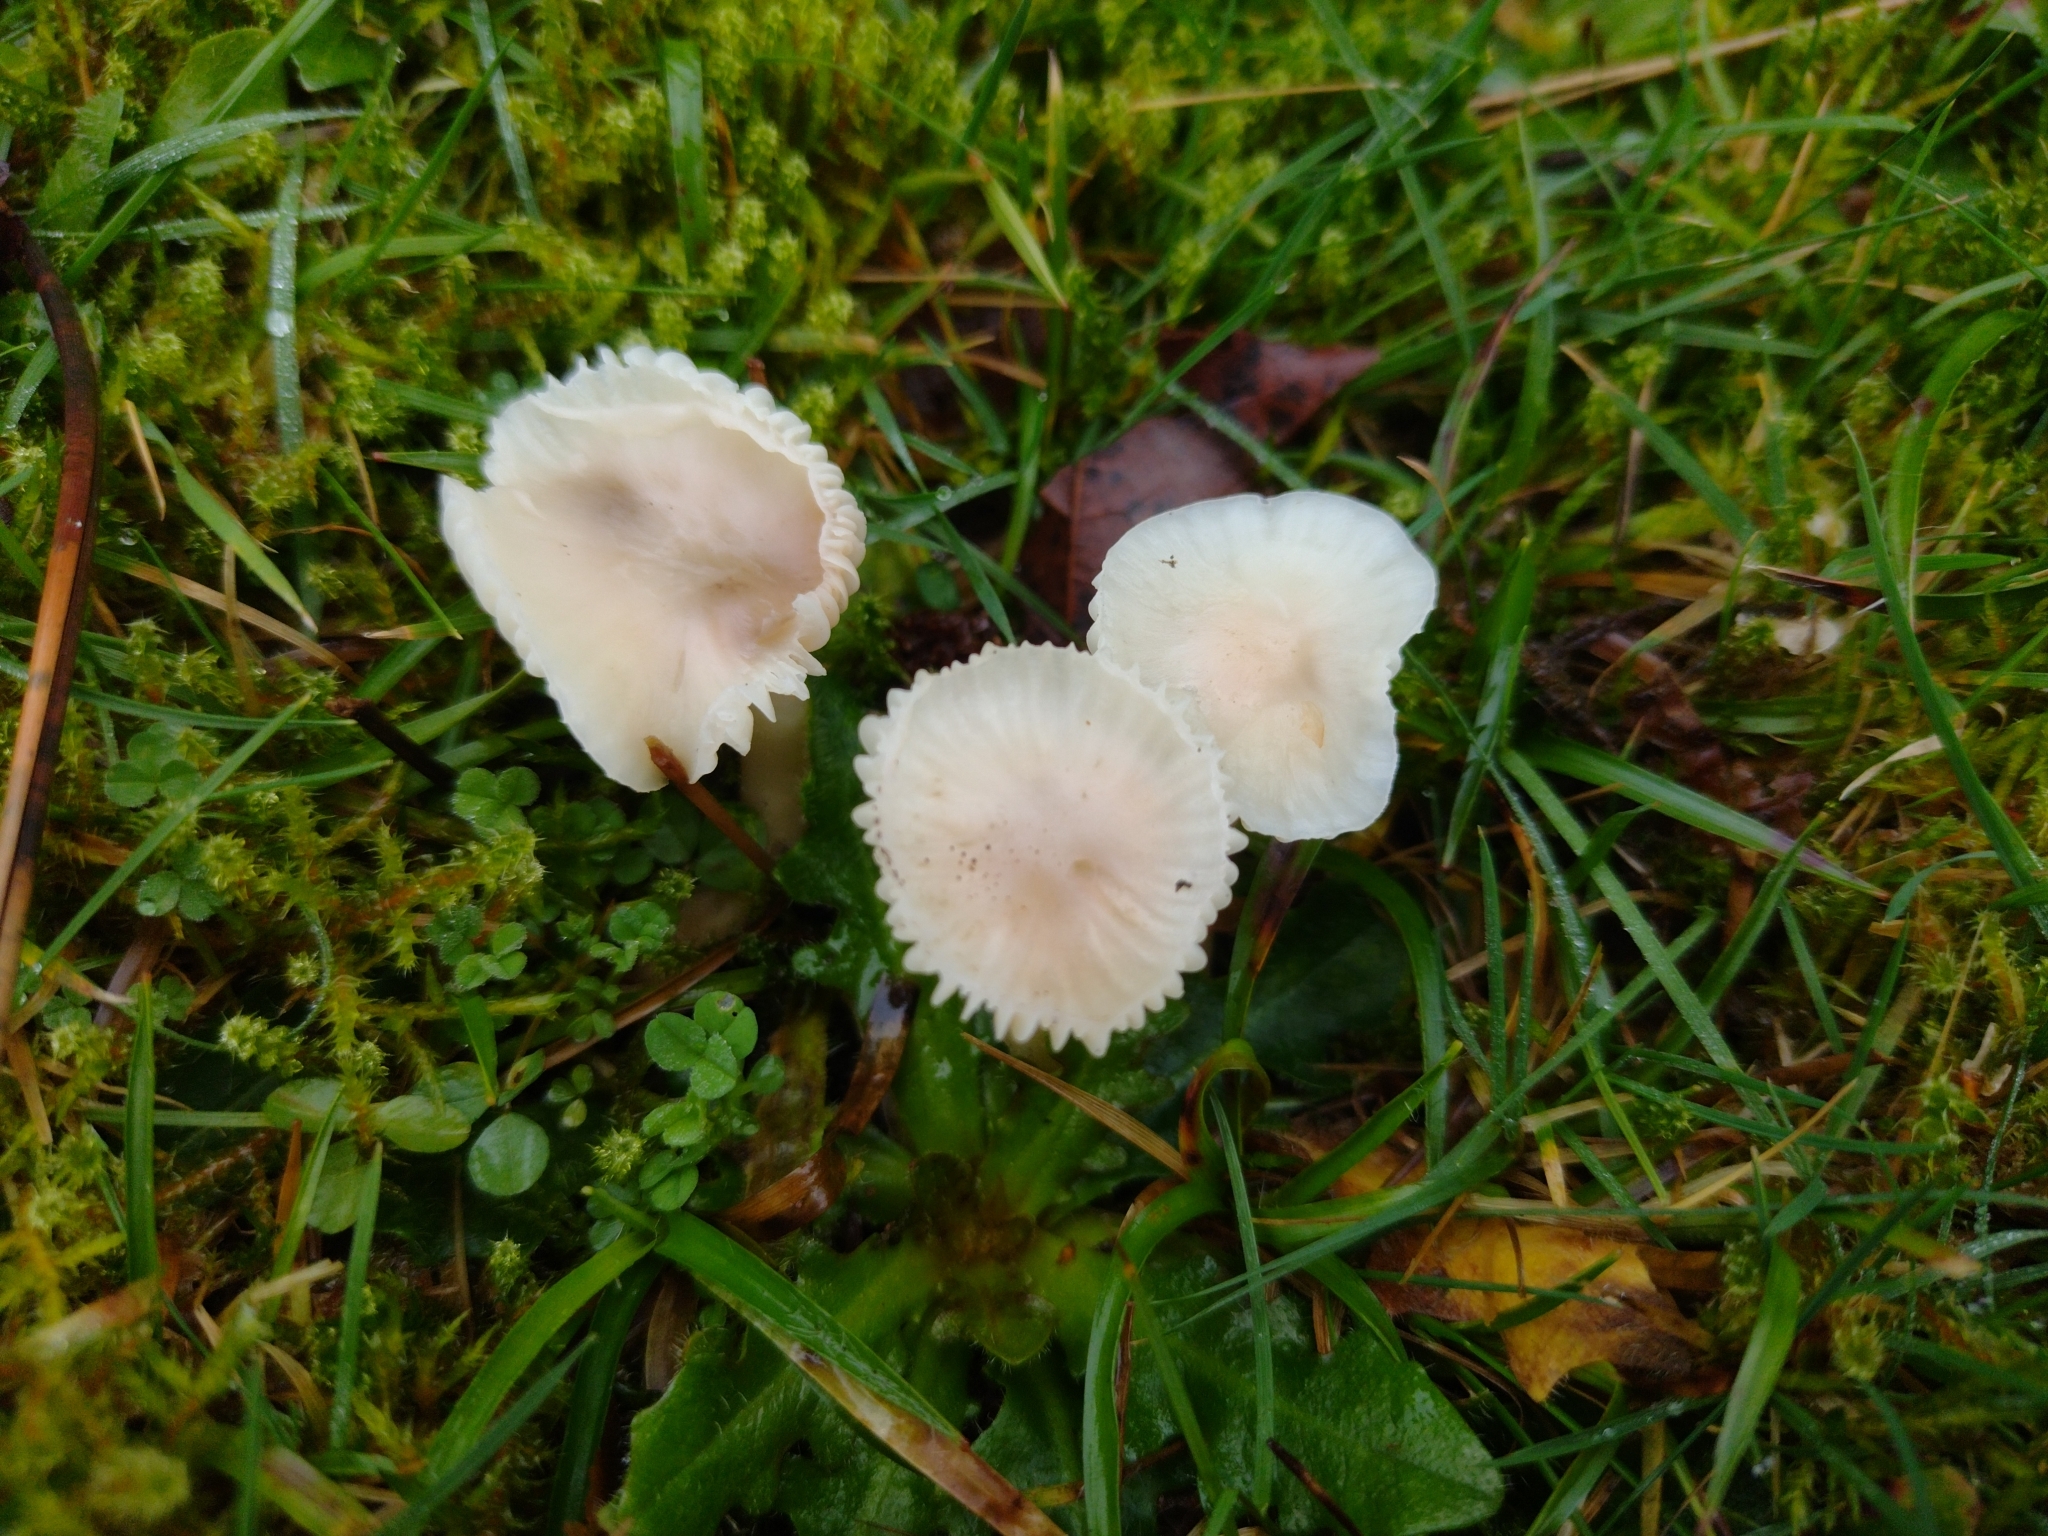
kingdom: Fungi
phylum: Basidiomycota
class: Agaricomycetes
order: Agaricales
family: Hygrophoraceae
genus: Cuphophyllus
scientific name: Cuphophyllus virgineus
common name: Snowy waxcap
